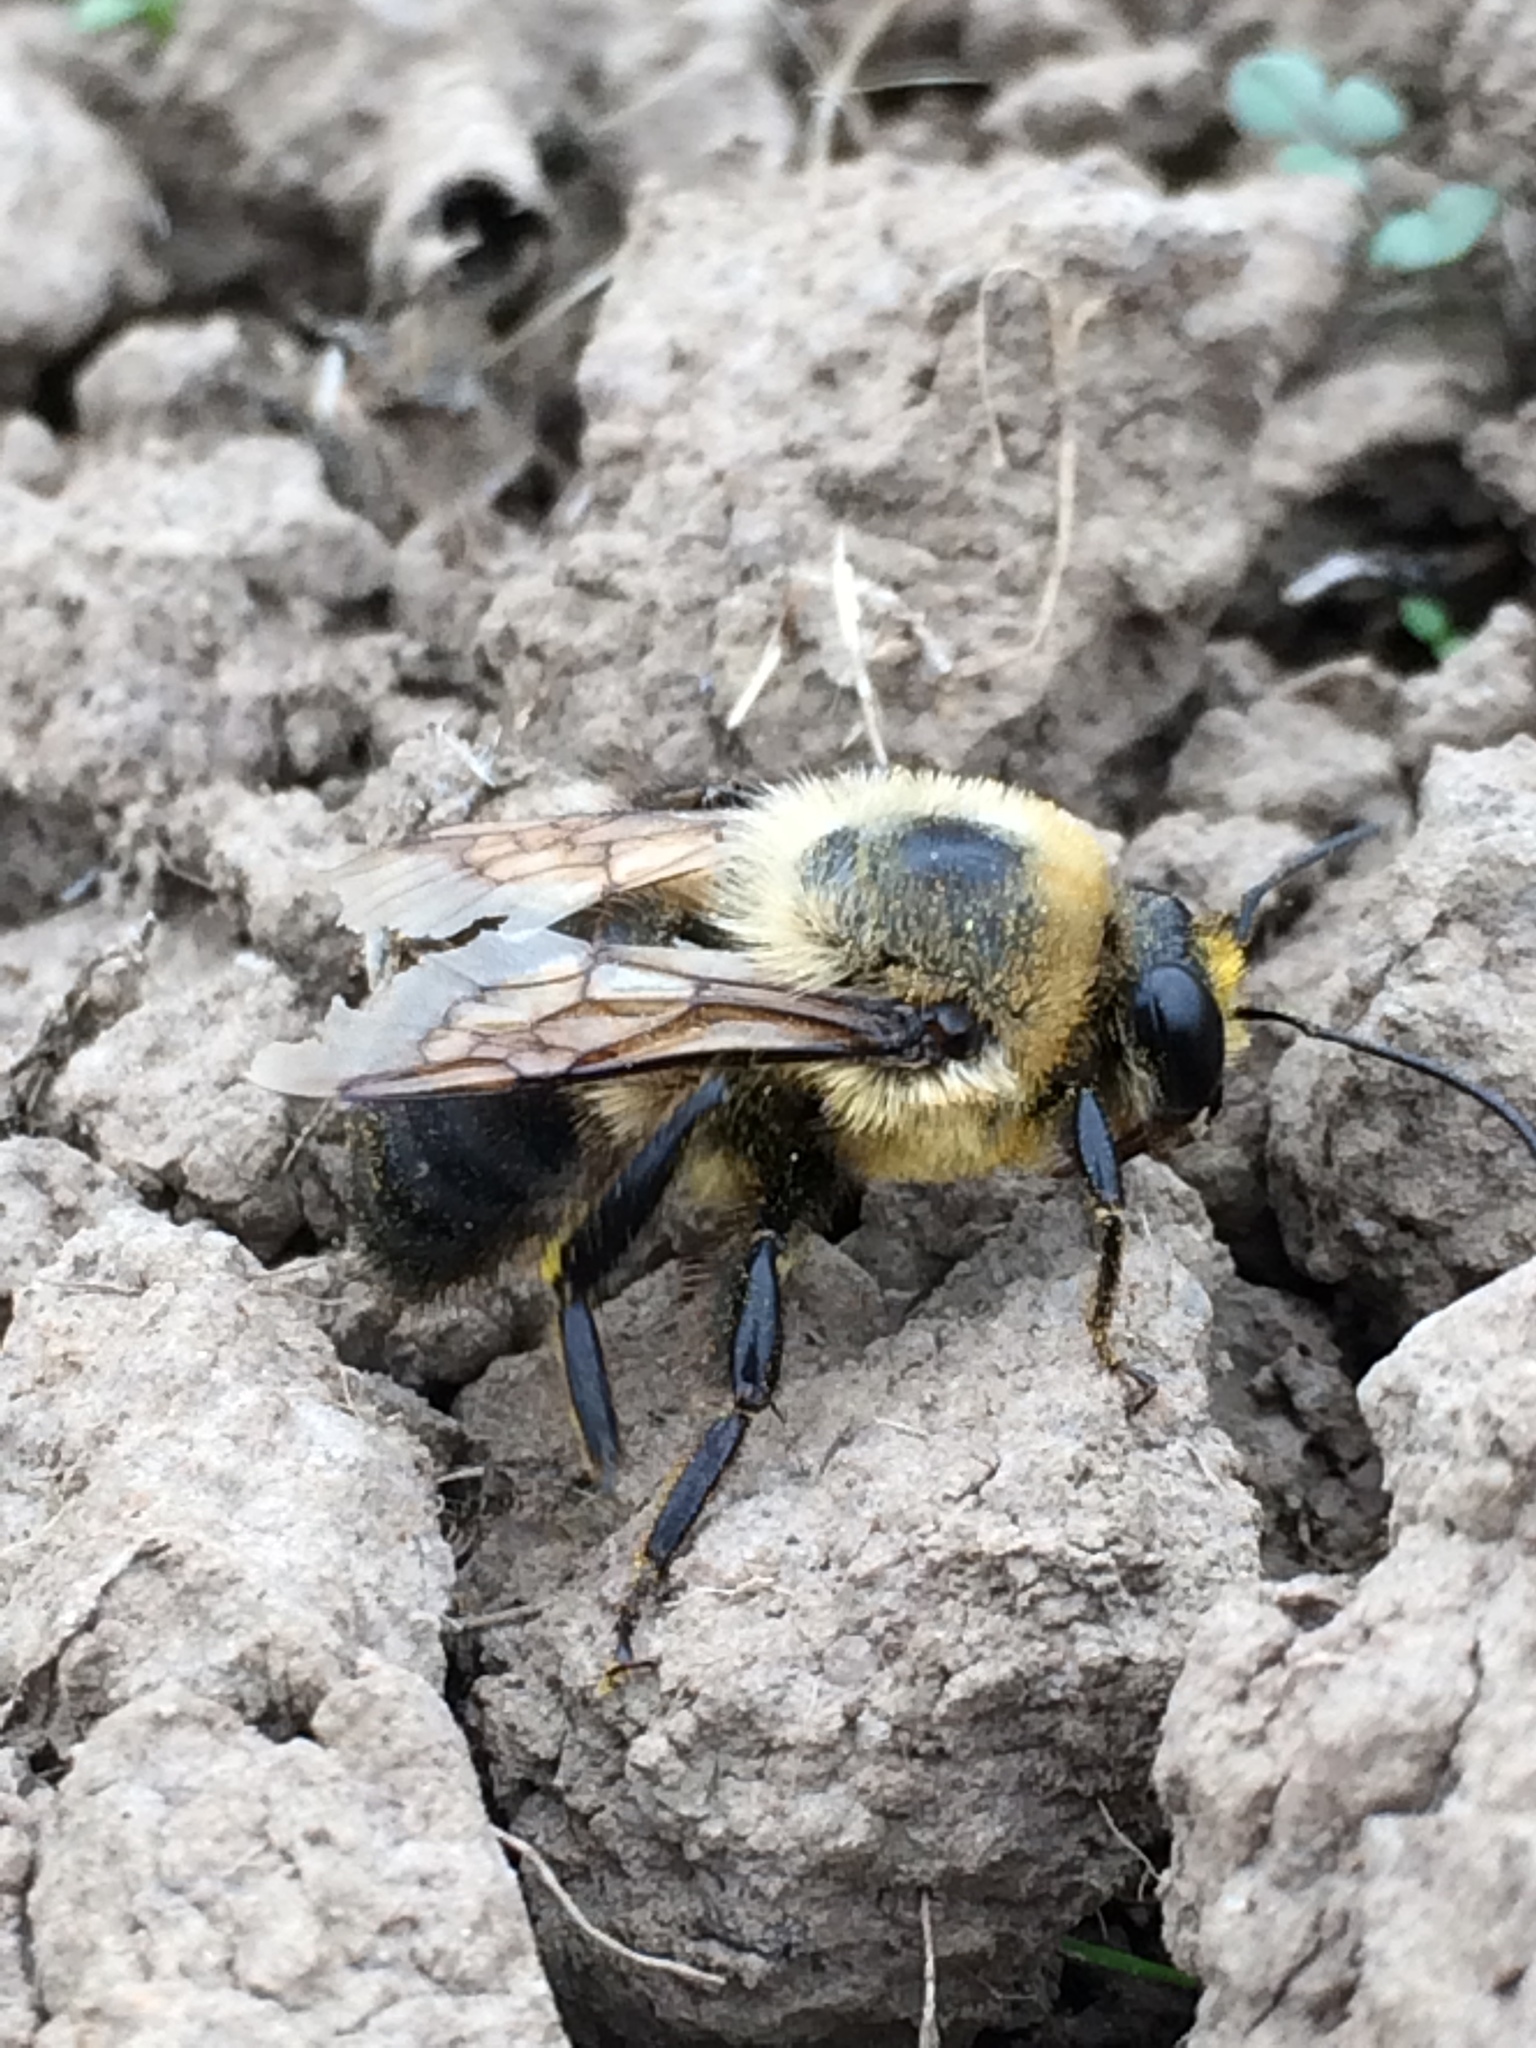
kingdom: Animalia
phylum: Arthropoda
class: Insecta
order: Hymenoptera
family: Apidae
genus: Bombus
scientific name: Bombus griseocollis
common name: Brown-belted bumble bee
